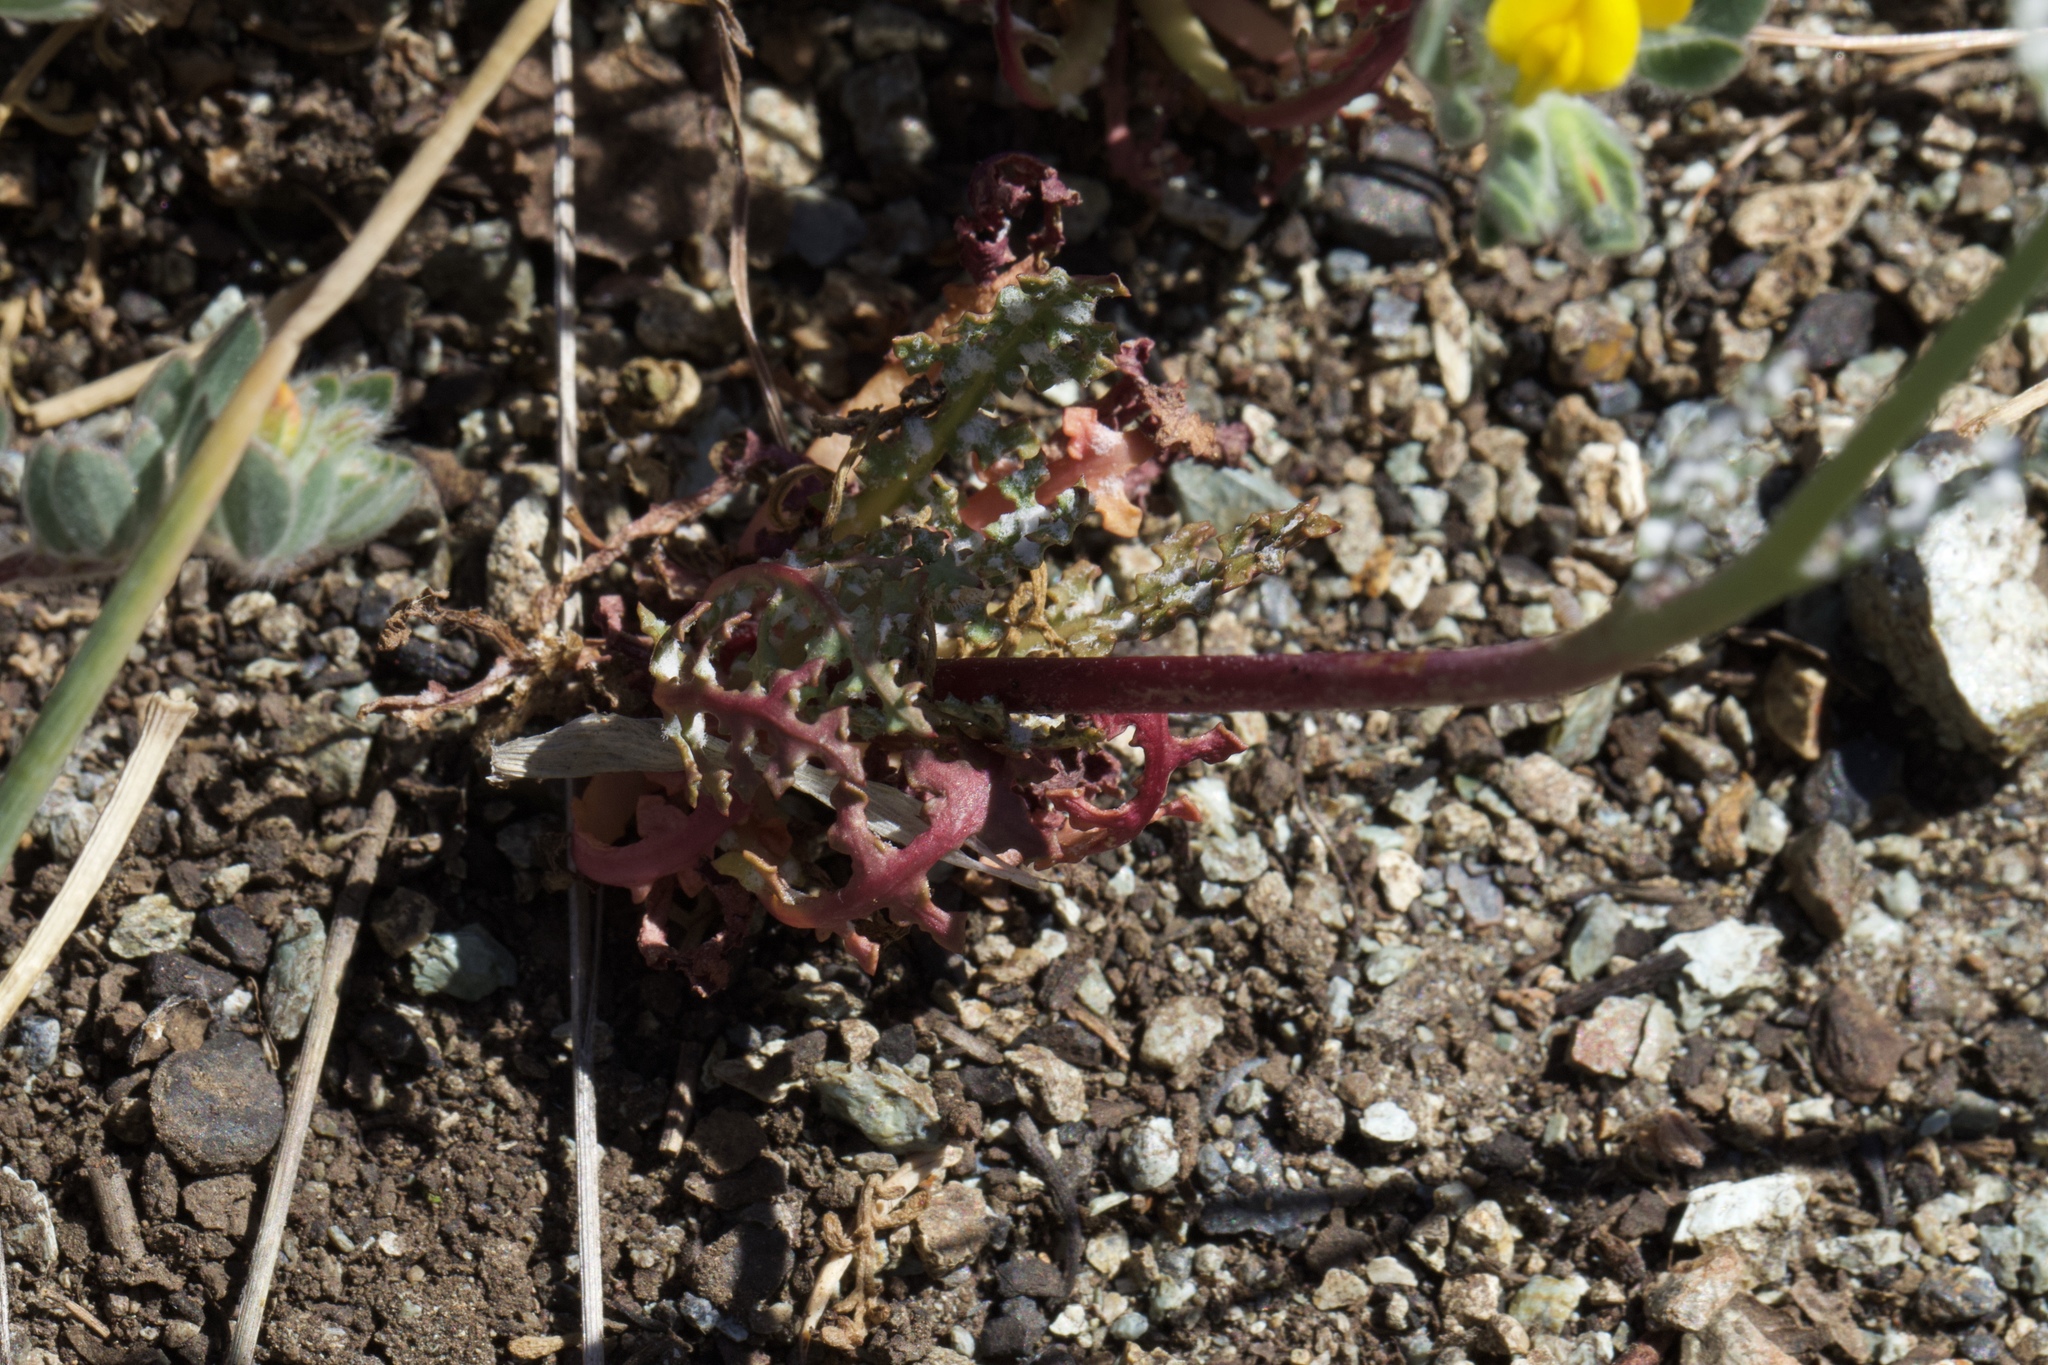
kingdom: Plantae
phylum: Tracheophyta
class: Magnoliopsida
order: Asterales
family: Asteraceae
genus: Malacothrix
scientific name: Malacothrix floccifera
